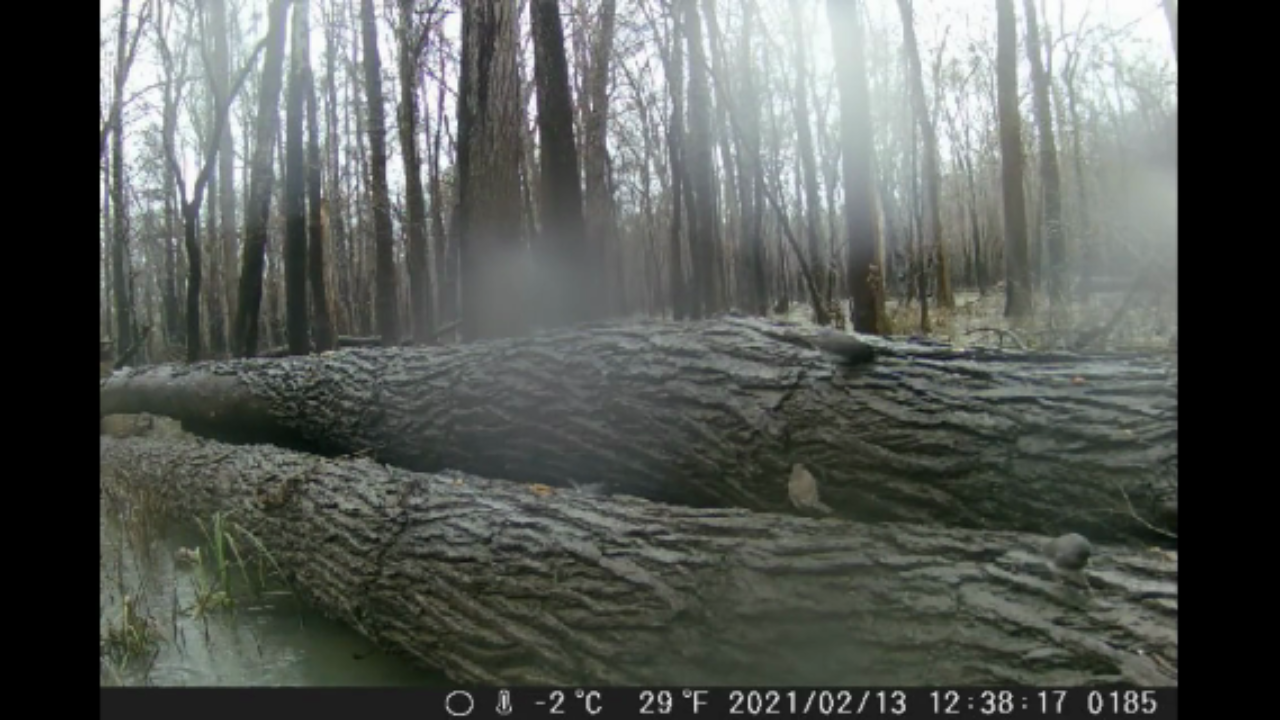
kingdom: Animalia
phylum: Chordata
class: Aves
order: Passeriformes
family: Passerellidae
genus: Junco
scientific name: Junco hyemalis
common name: Dark-eyed junco
